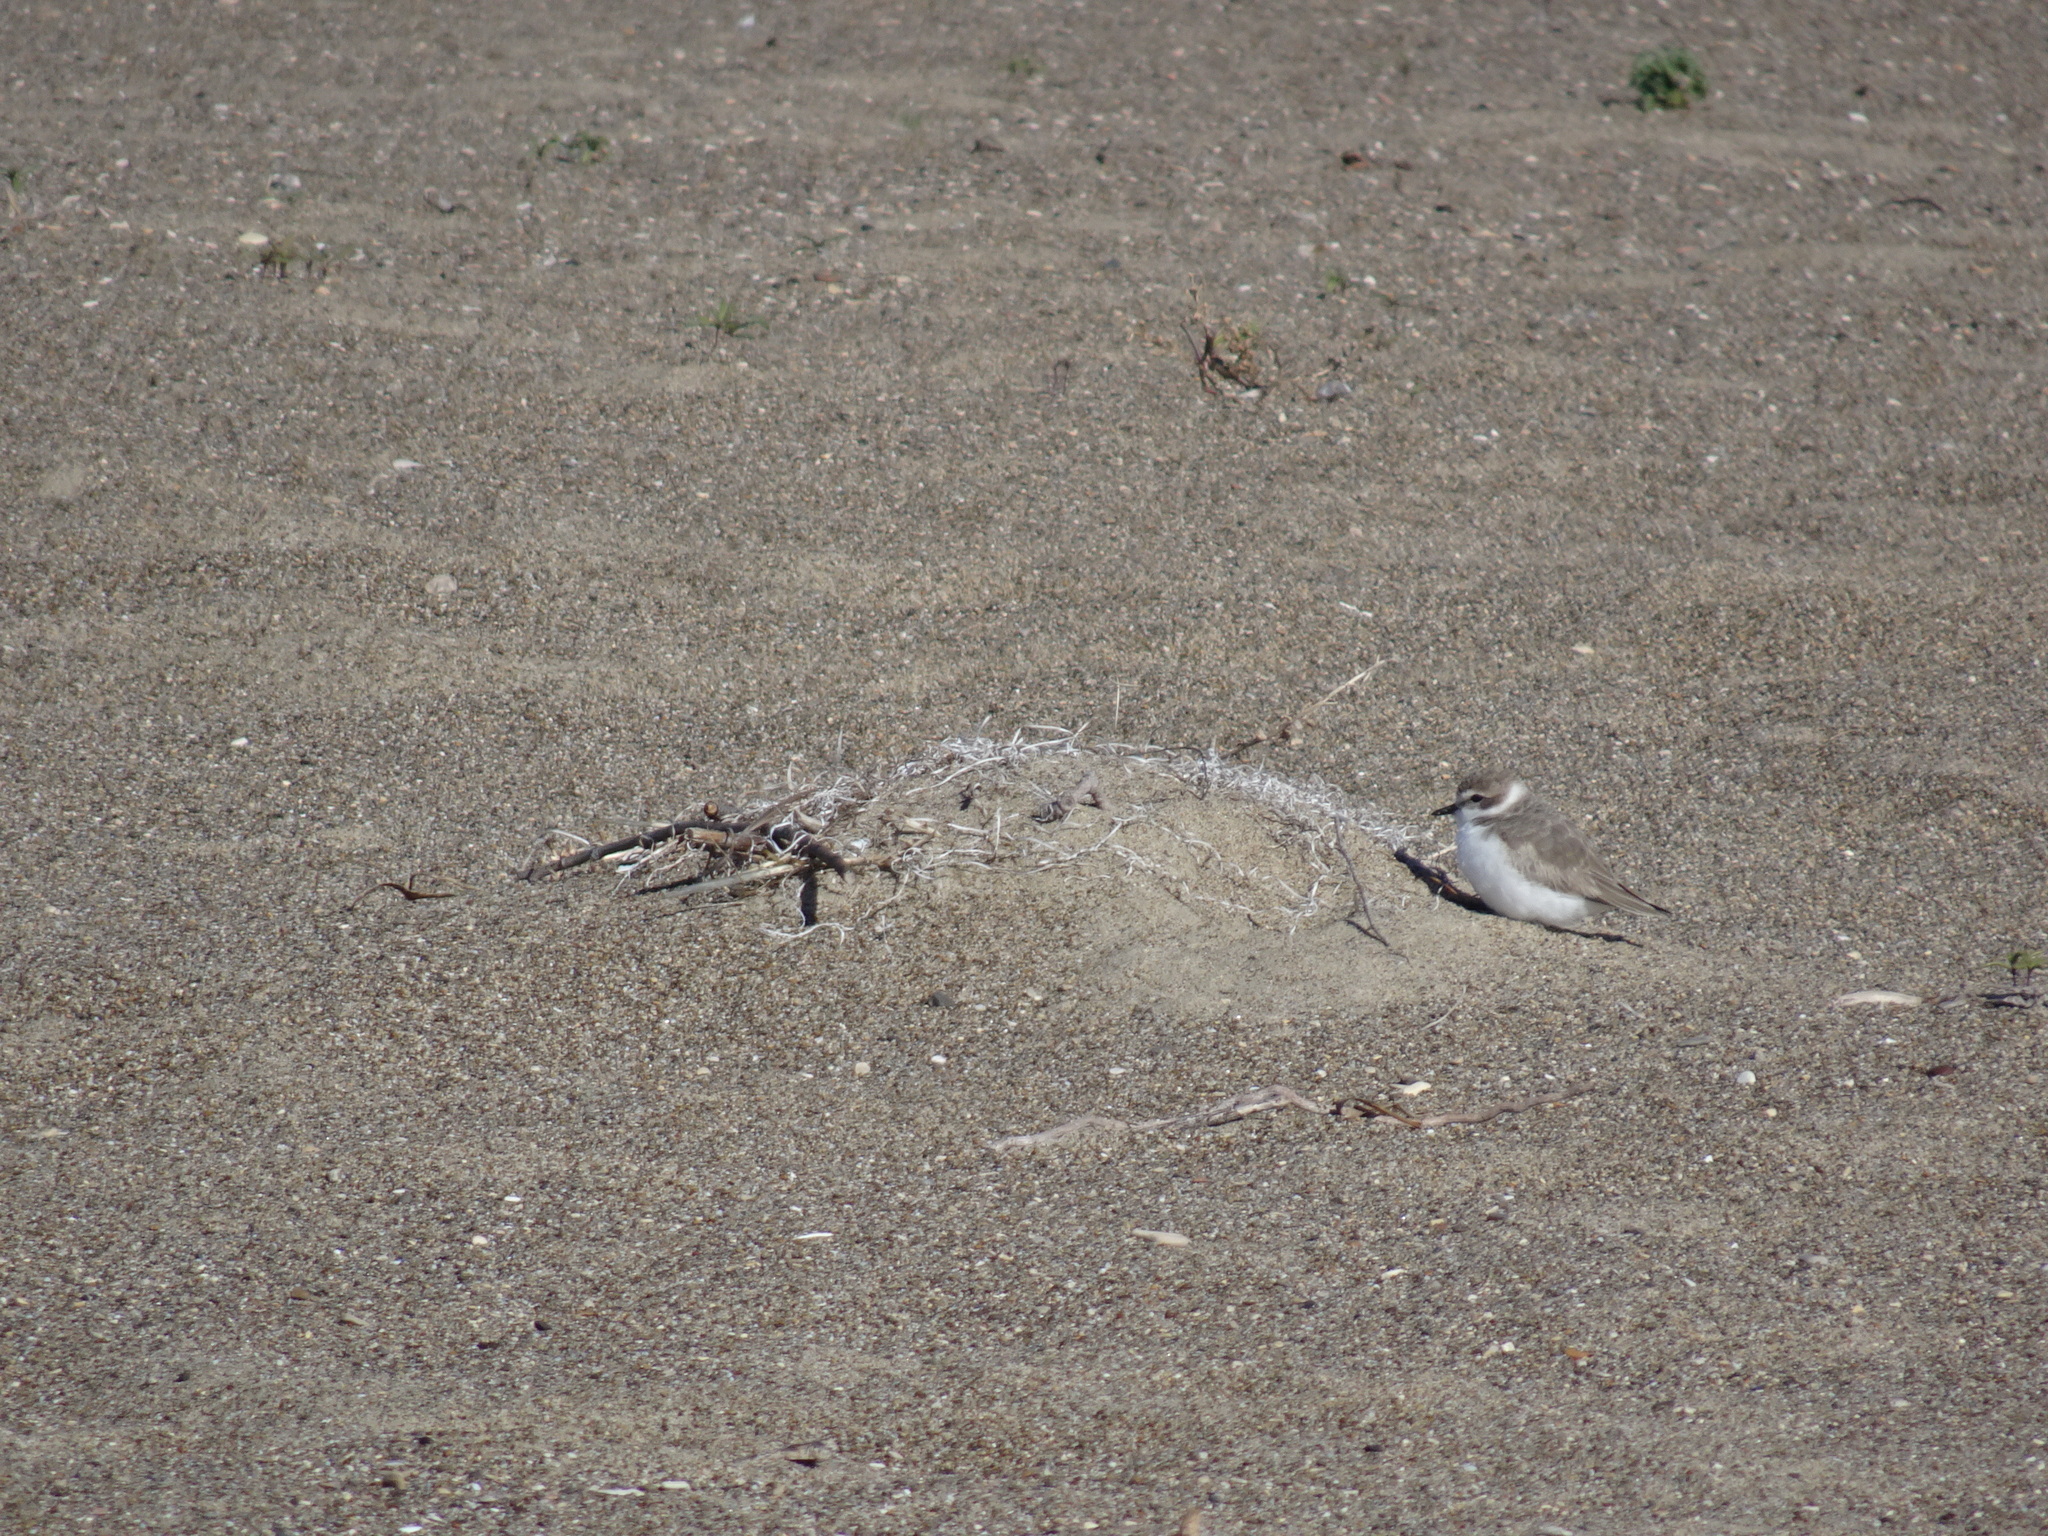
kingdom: Animalia
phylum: Chordata
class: Aves
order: Charadriiformes
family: Charadriidae
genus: Anarhynchus
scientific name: Anarhynchus
